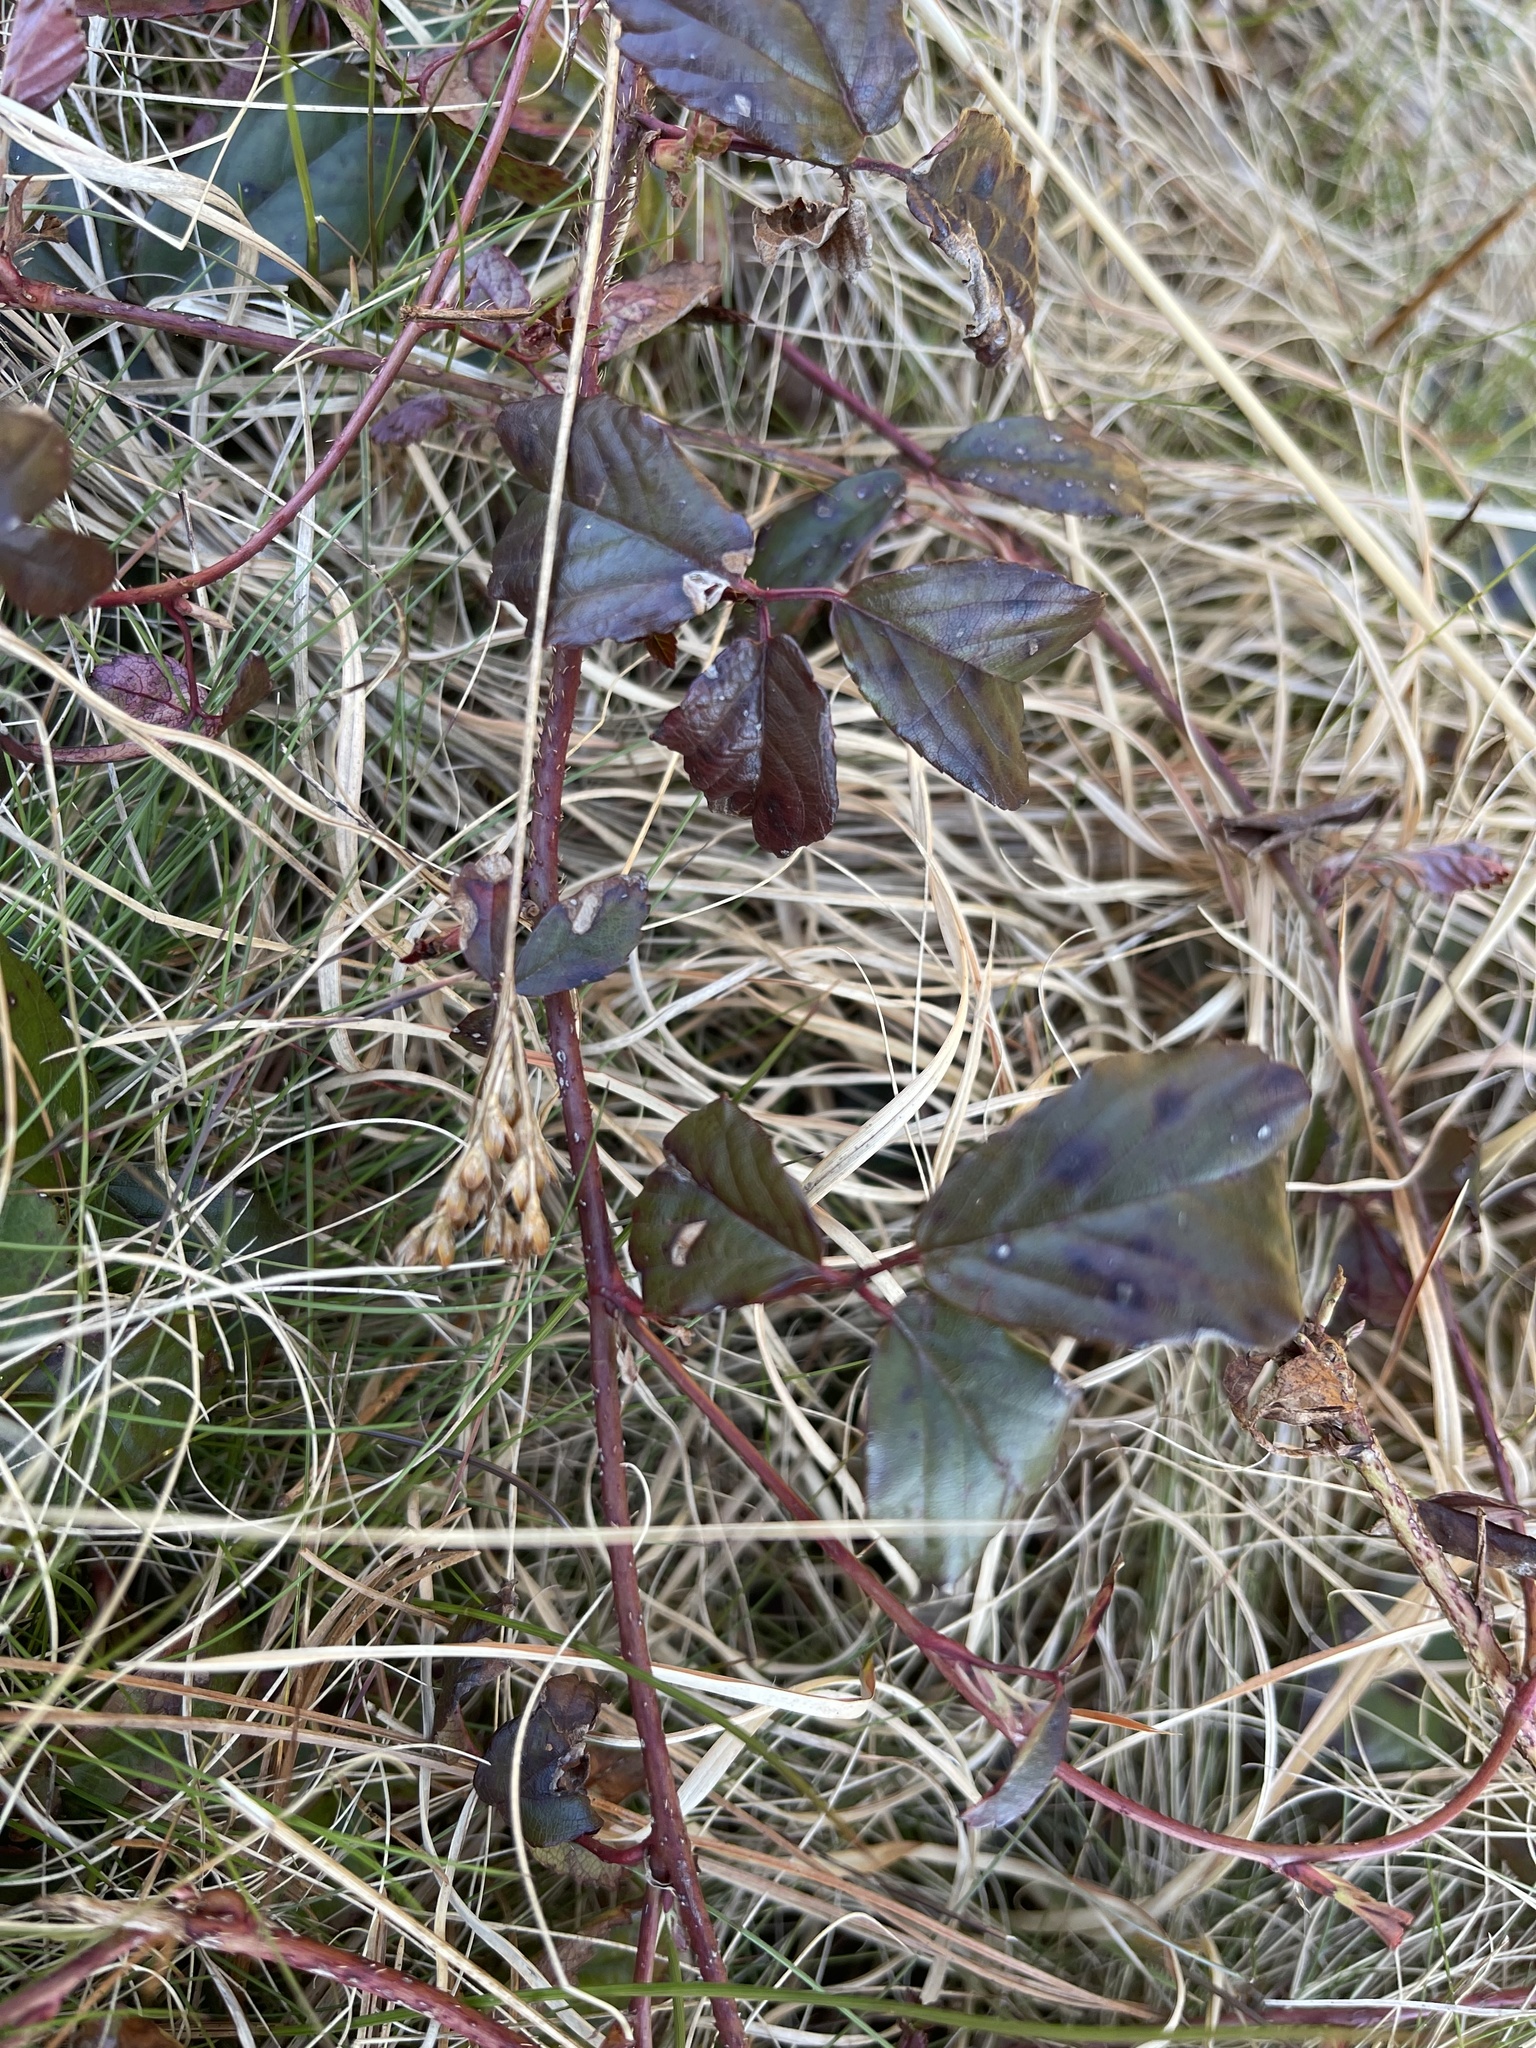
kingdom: Plantae
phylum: Tracheophyta
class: Magnoliopsida
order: Rosales
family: Rosaceae
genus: Rubus
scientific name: Rubus hispidus
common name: Running blackberry
